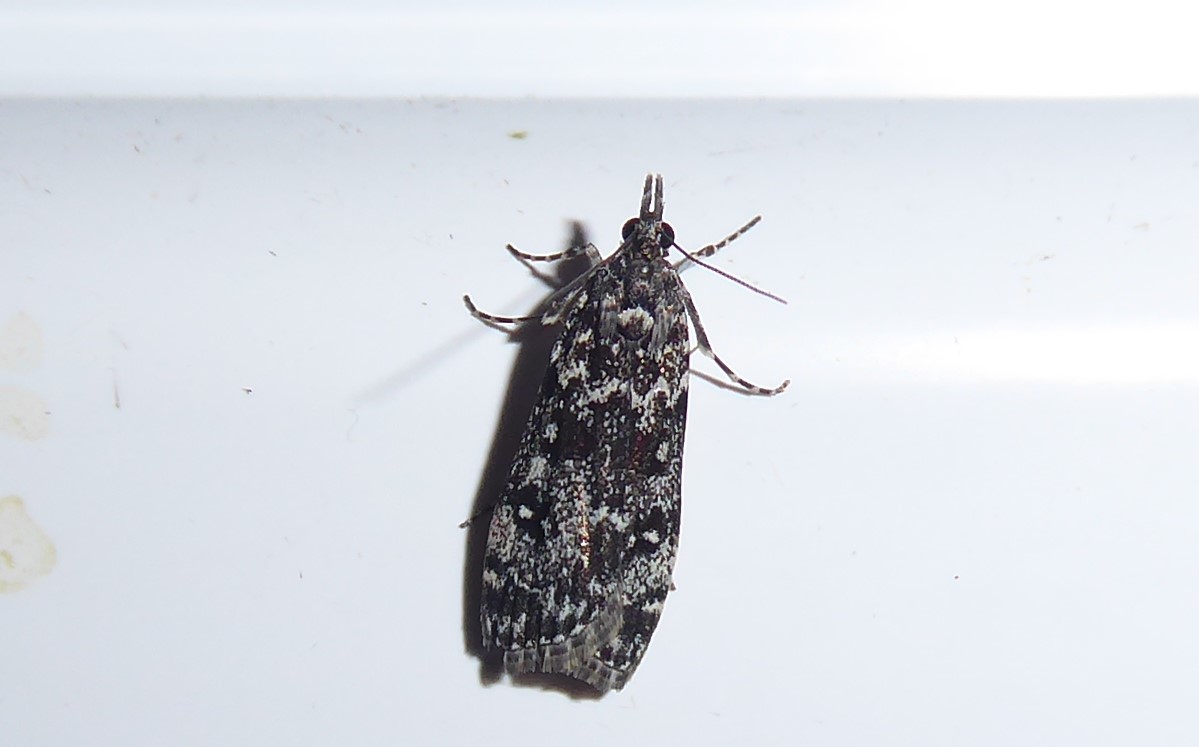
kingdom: Animalia
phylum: Arthropoda
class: Insecta
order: Lepidoptera
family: Crambidae
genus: Eudonia
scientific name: Eudonia philerga
